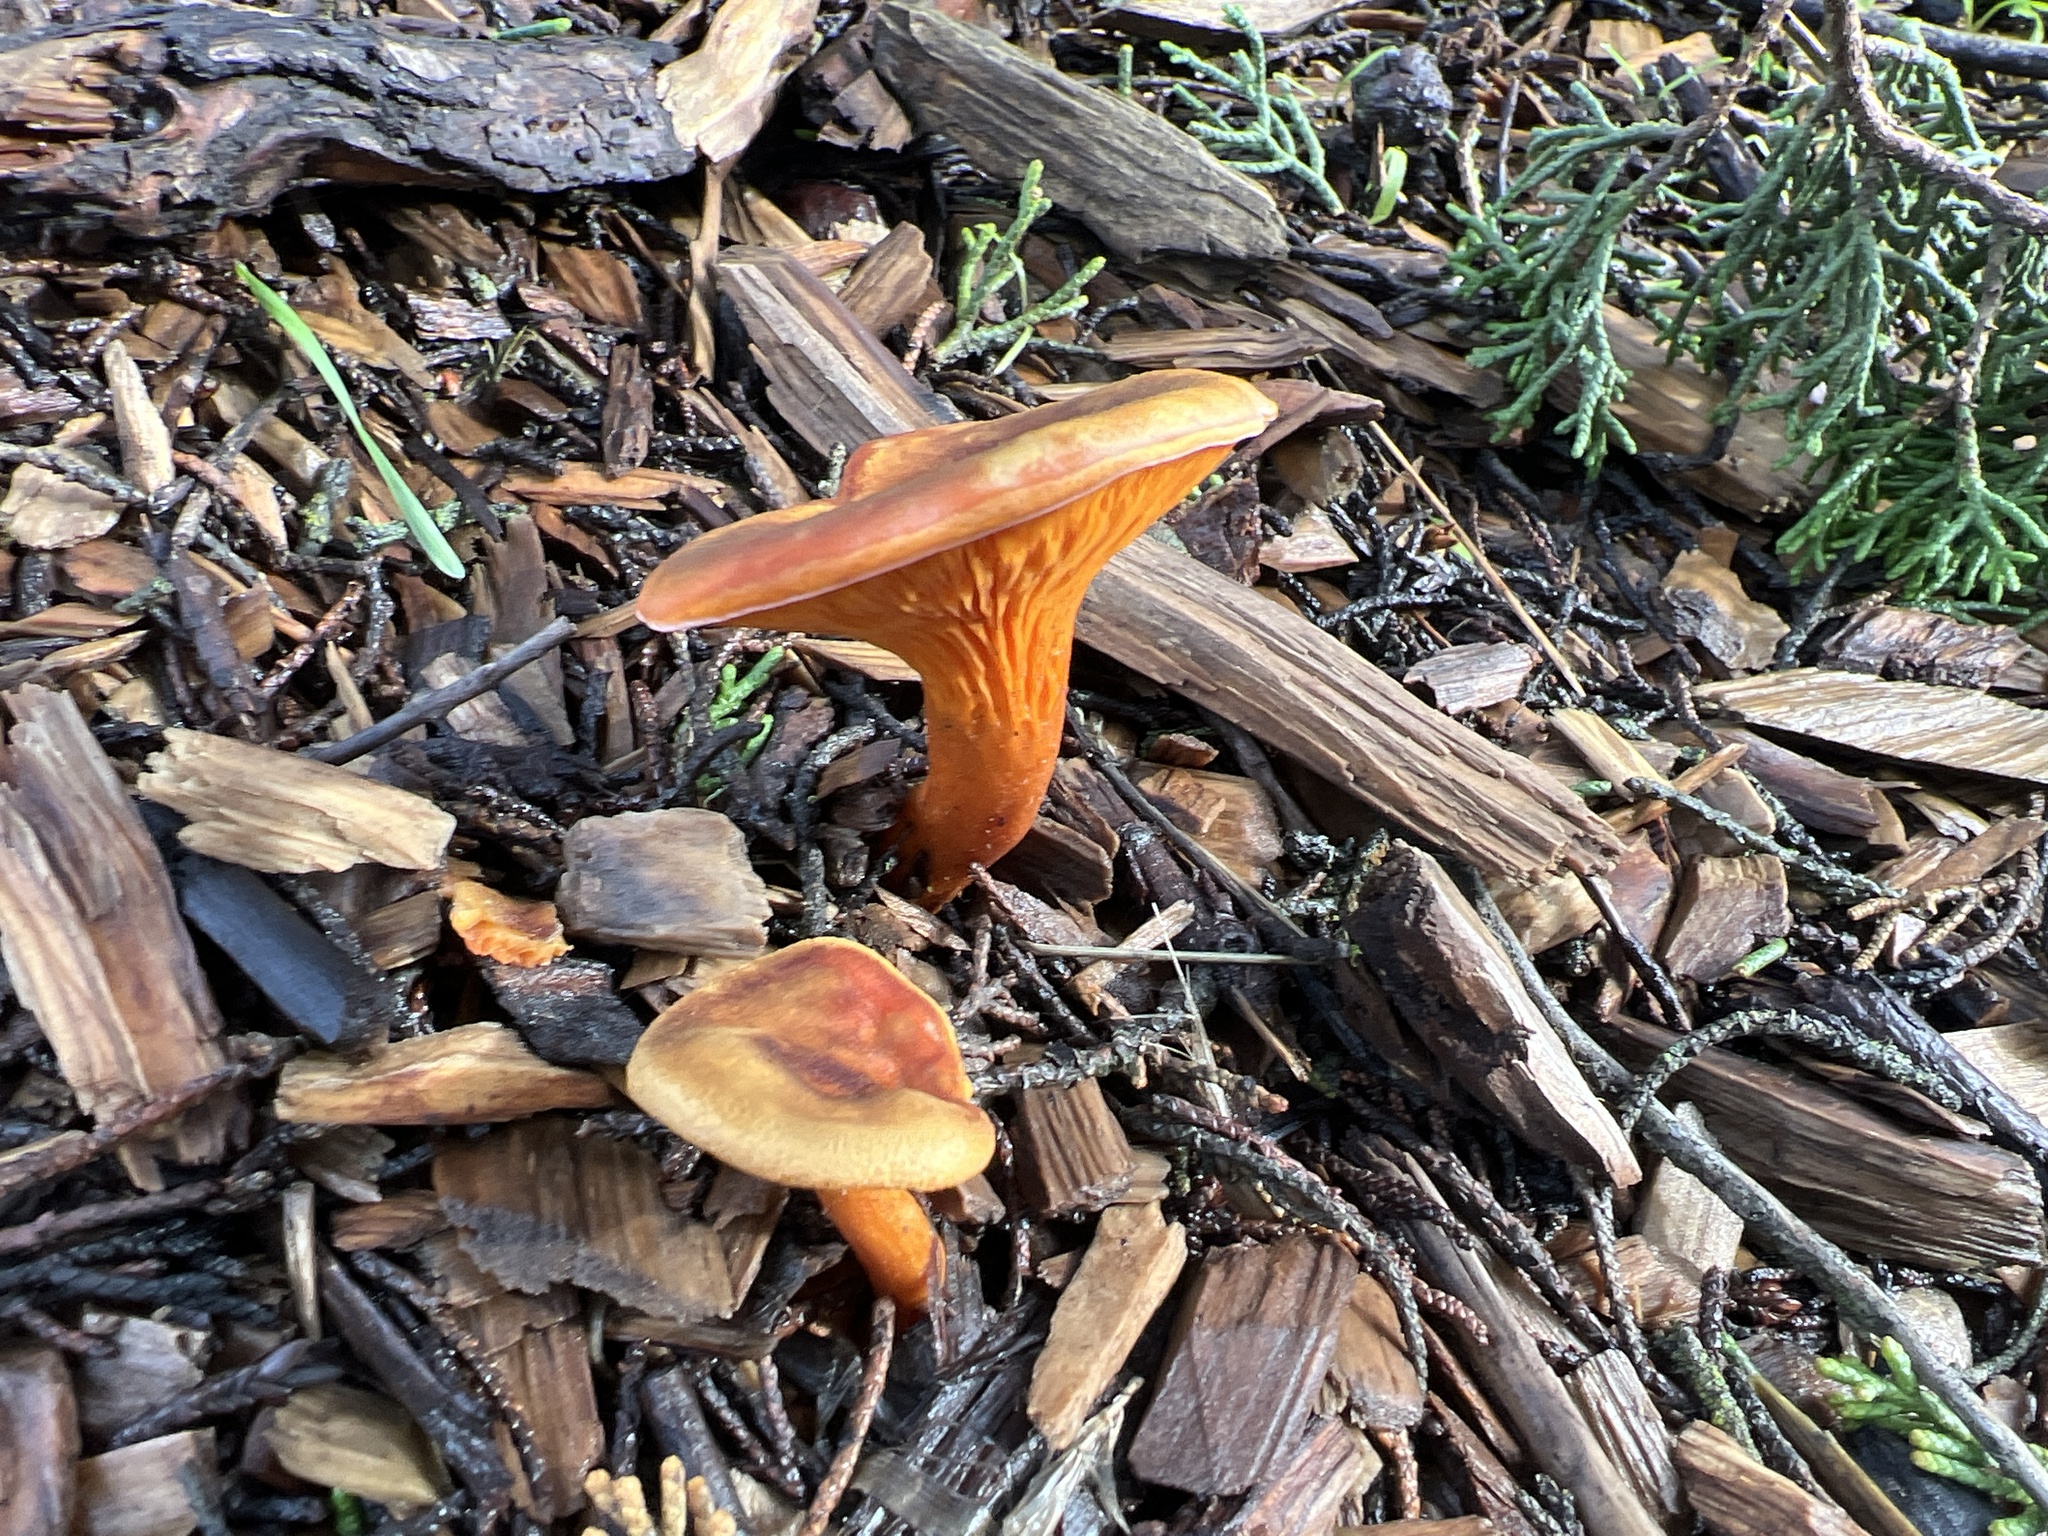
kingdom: Fungi
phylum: Basidiomycota
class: Agaricomycetes
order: Boletales
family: Hygrophoropsidaceae
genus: Hygrophoropsis
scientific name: Hygrophoropsis aurantiaca
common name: False chanterelle
